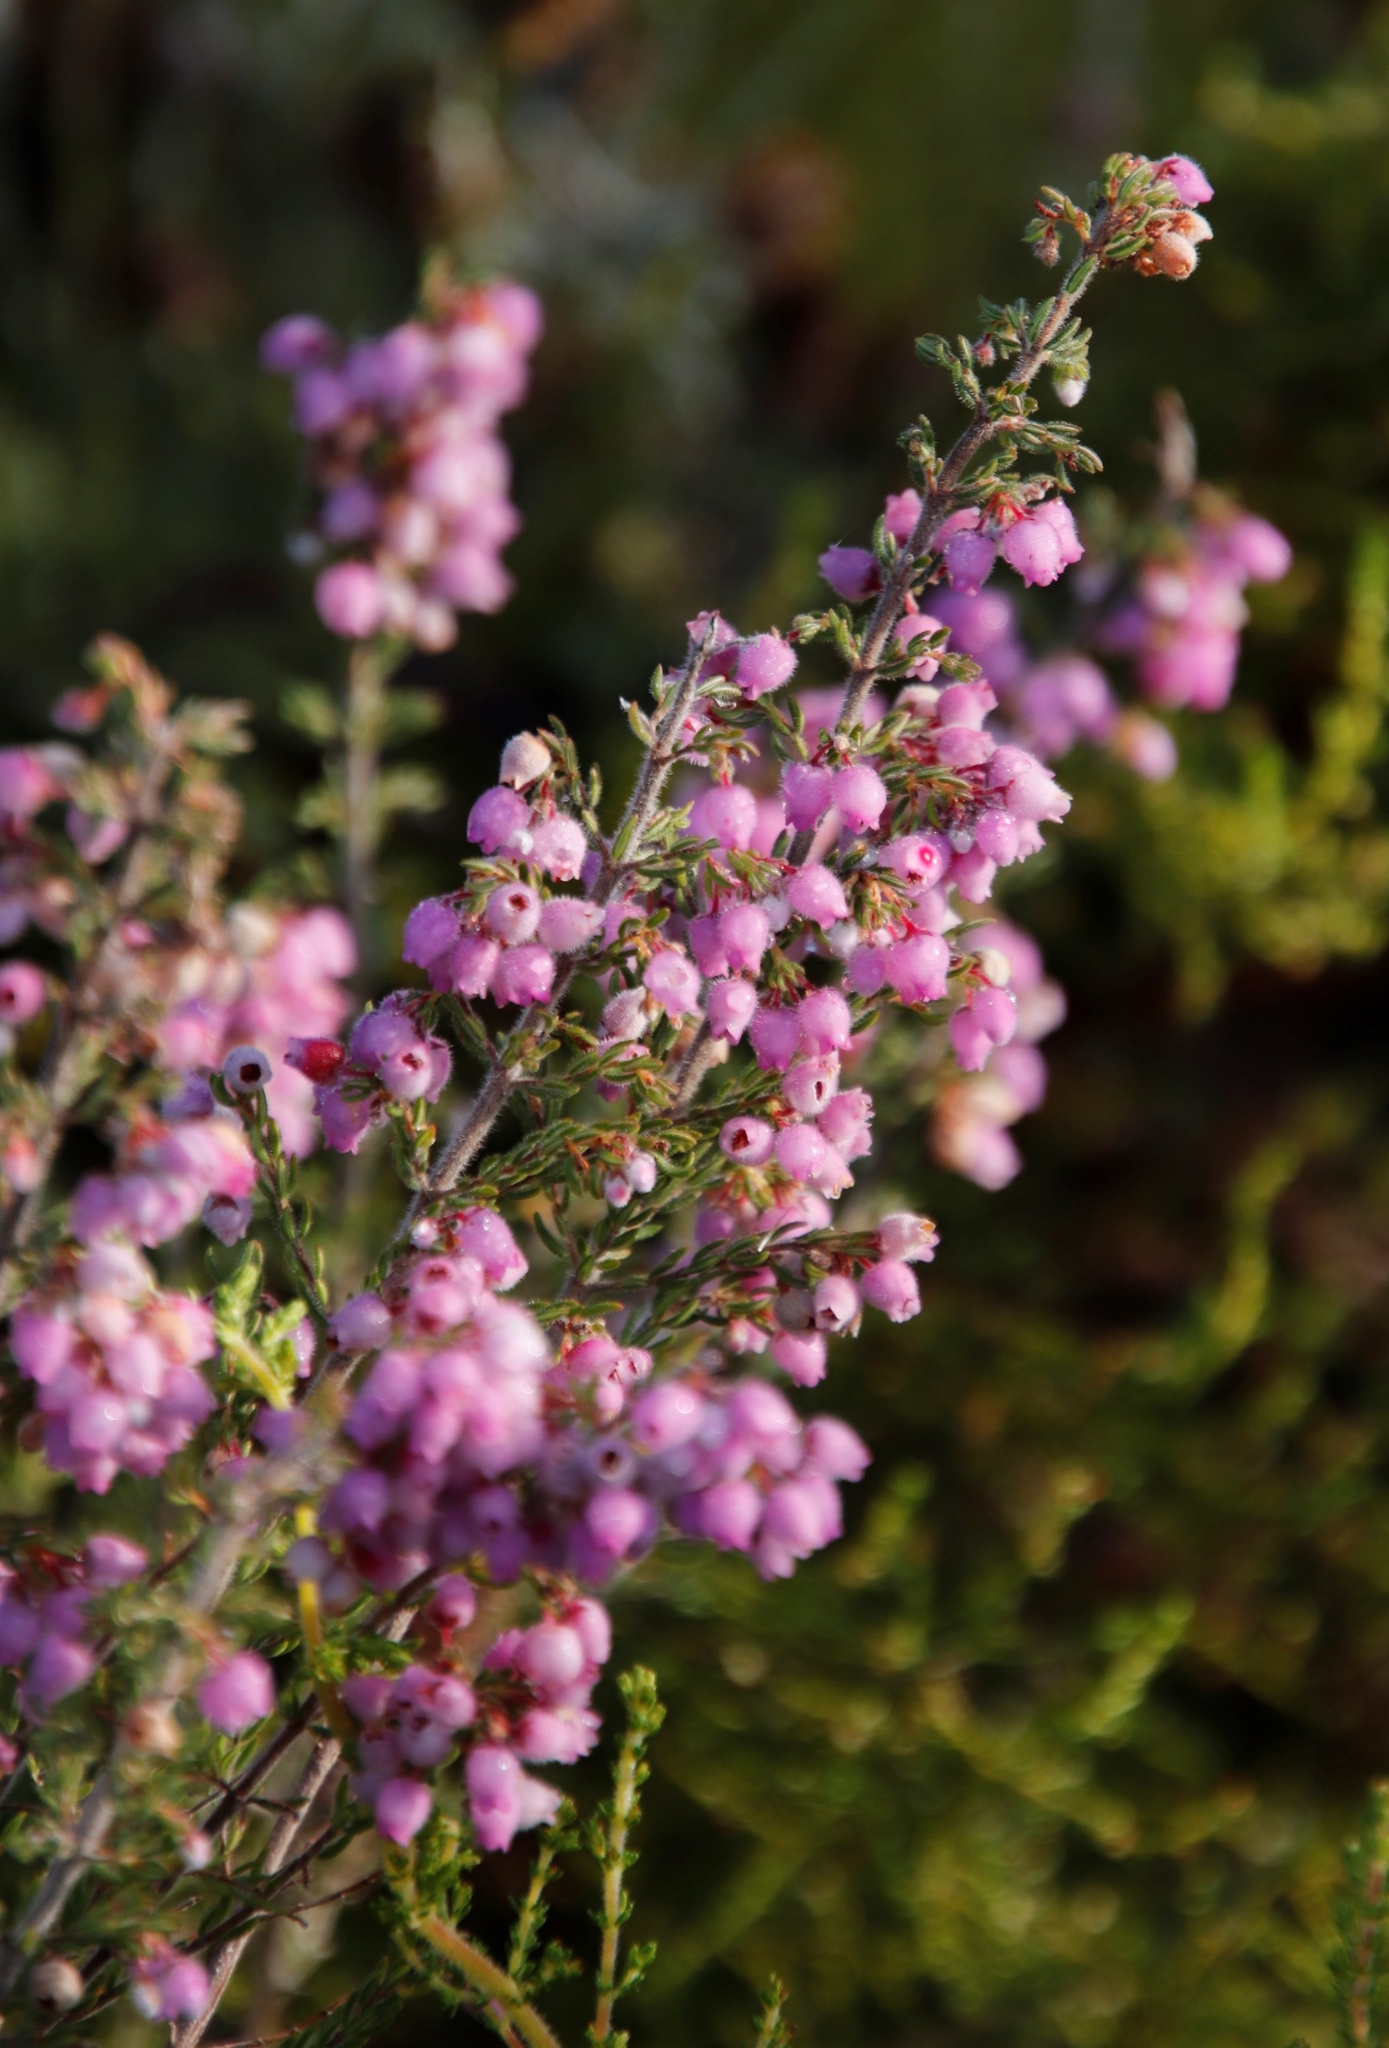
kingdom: Plantae
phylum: Tracheophyta
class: Magnoliopsida
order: Ericales
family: Ericaceae
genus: Erica
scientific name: Erica hirtiflora
